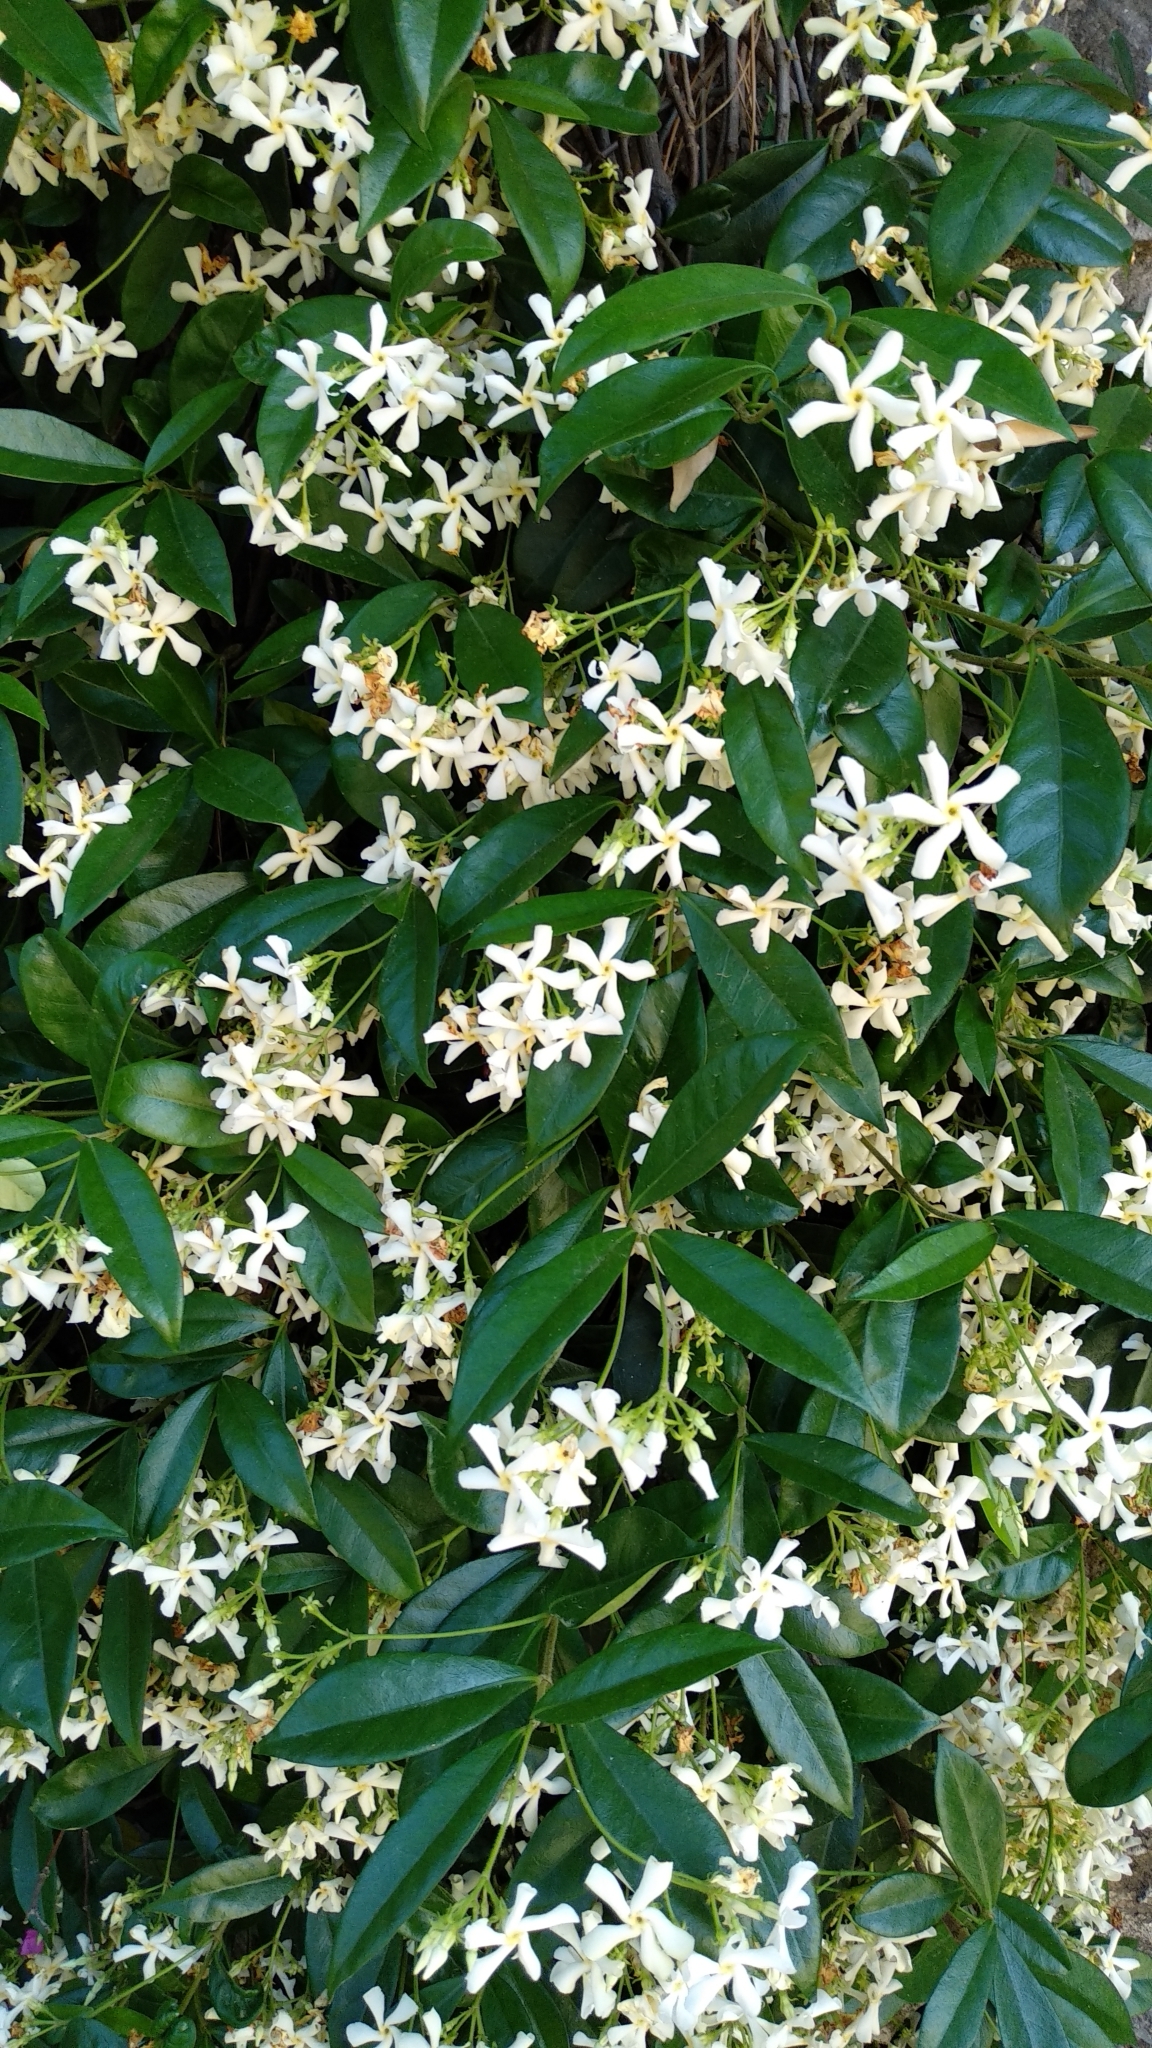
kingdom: Plantae
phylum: Tracheophyta
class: Magnoliopsida
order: Gentianales
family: Apocynaceae
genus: Trachelospermum
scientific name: Trachelospermum jasminoides
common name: Confederate jasmine
